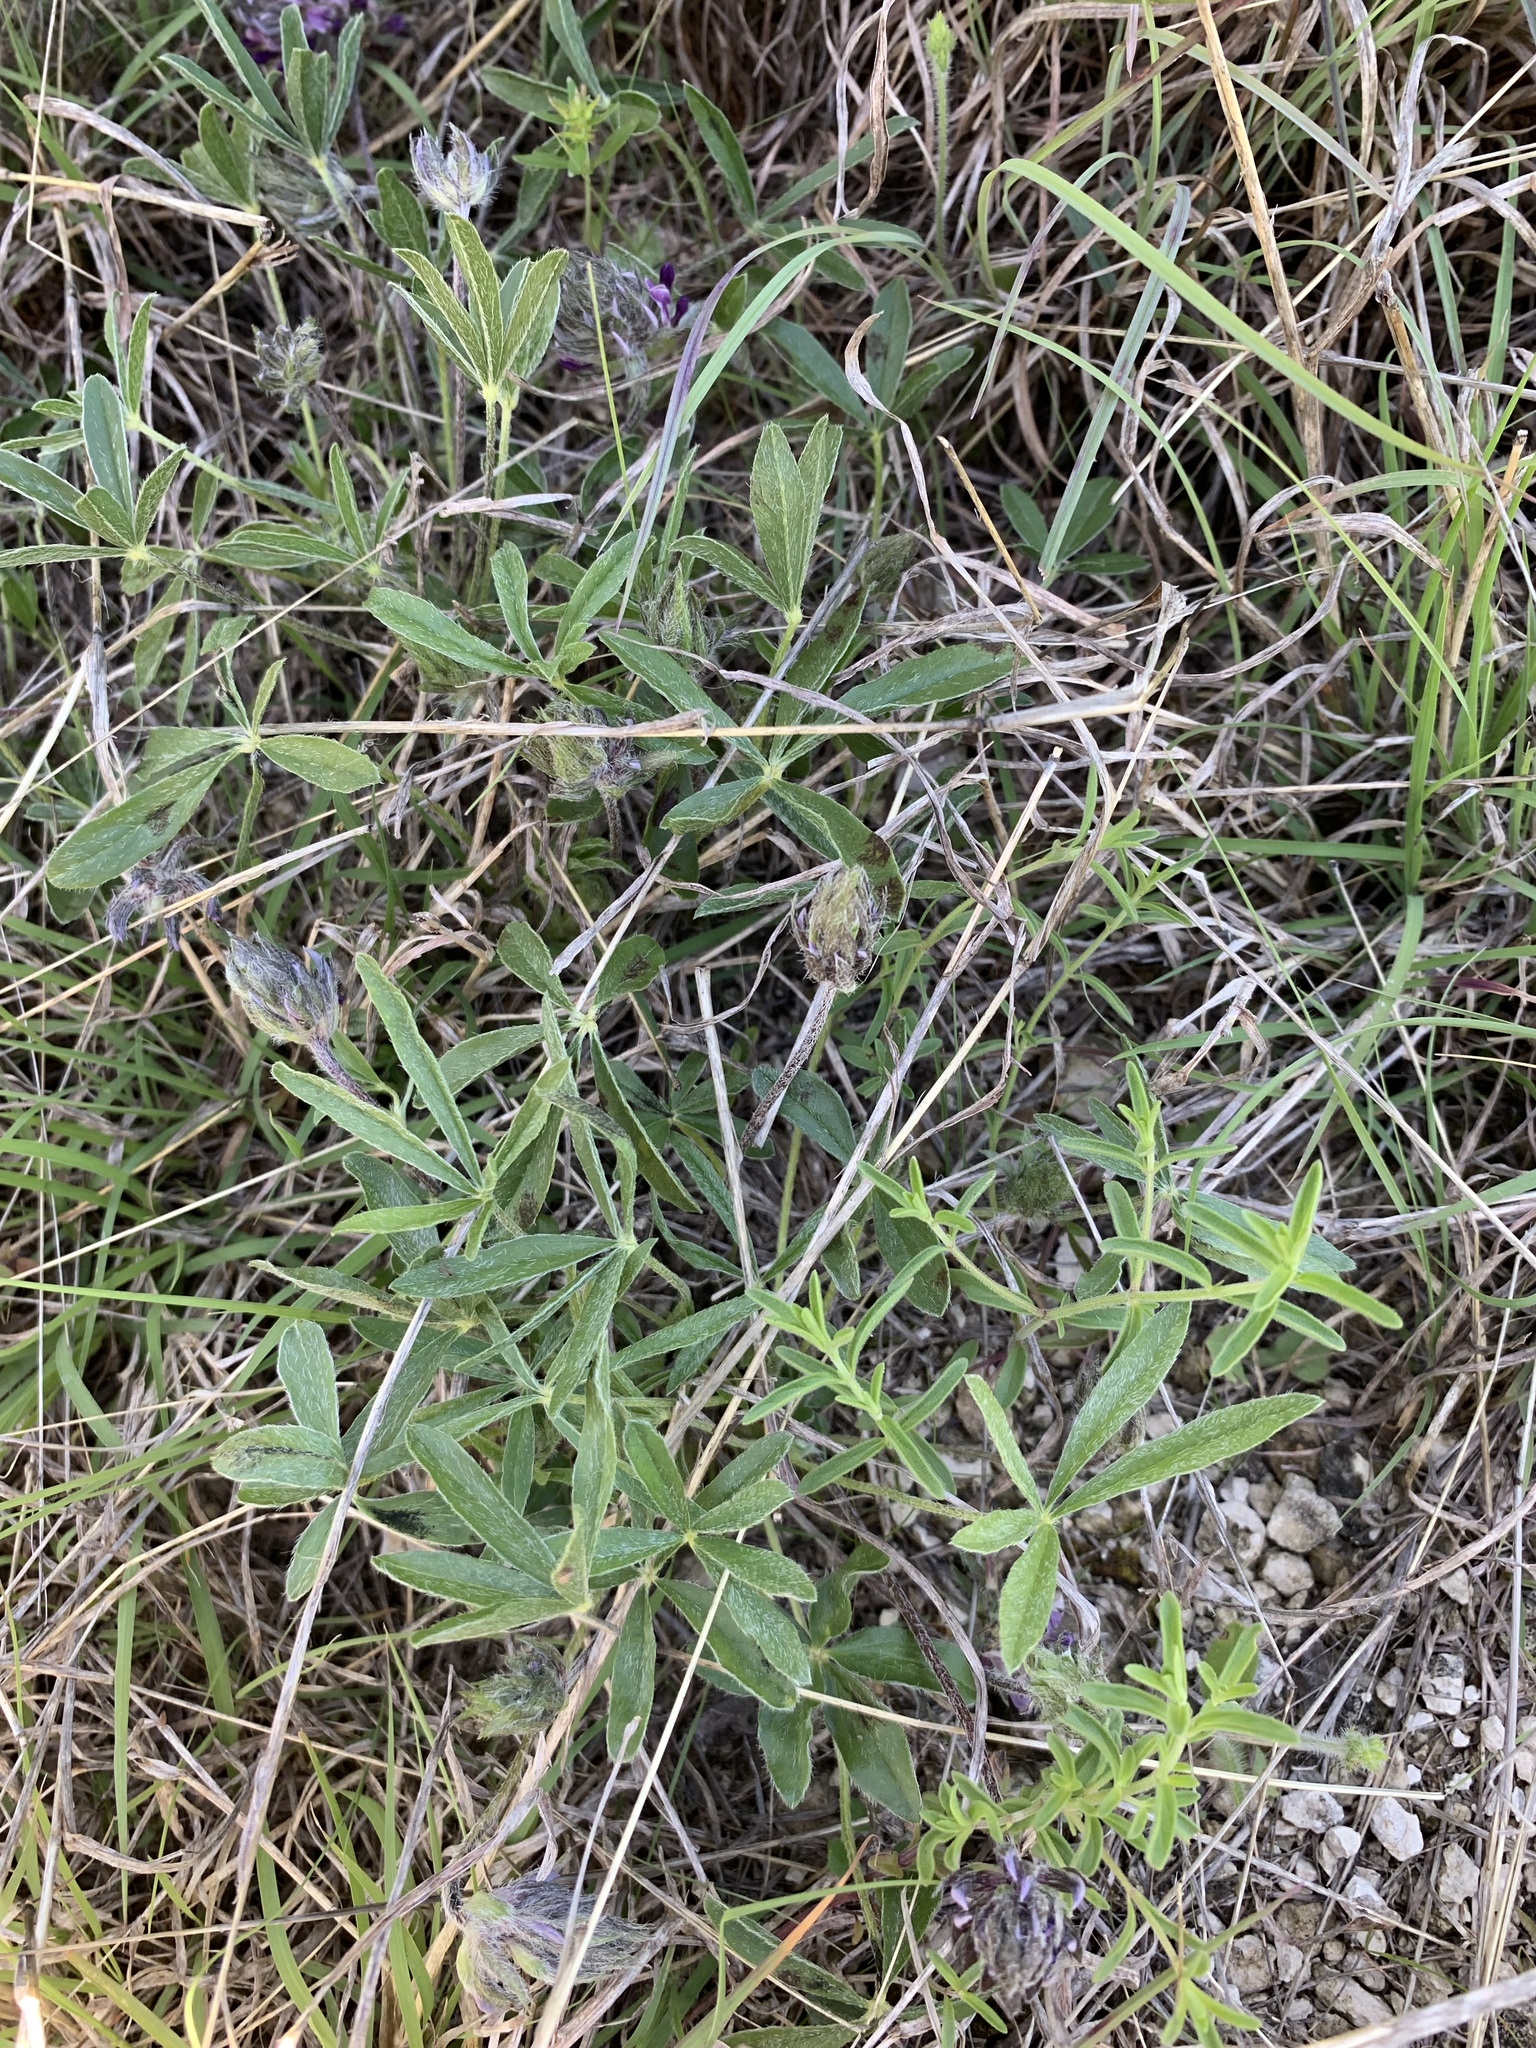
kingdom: Plantae
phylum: Tracheophyta
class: Magnoliopsida
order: Fabales
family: Fabaceae
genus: Pediomelum
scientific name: Pediomelum hypogaeum
